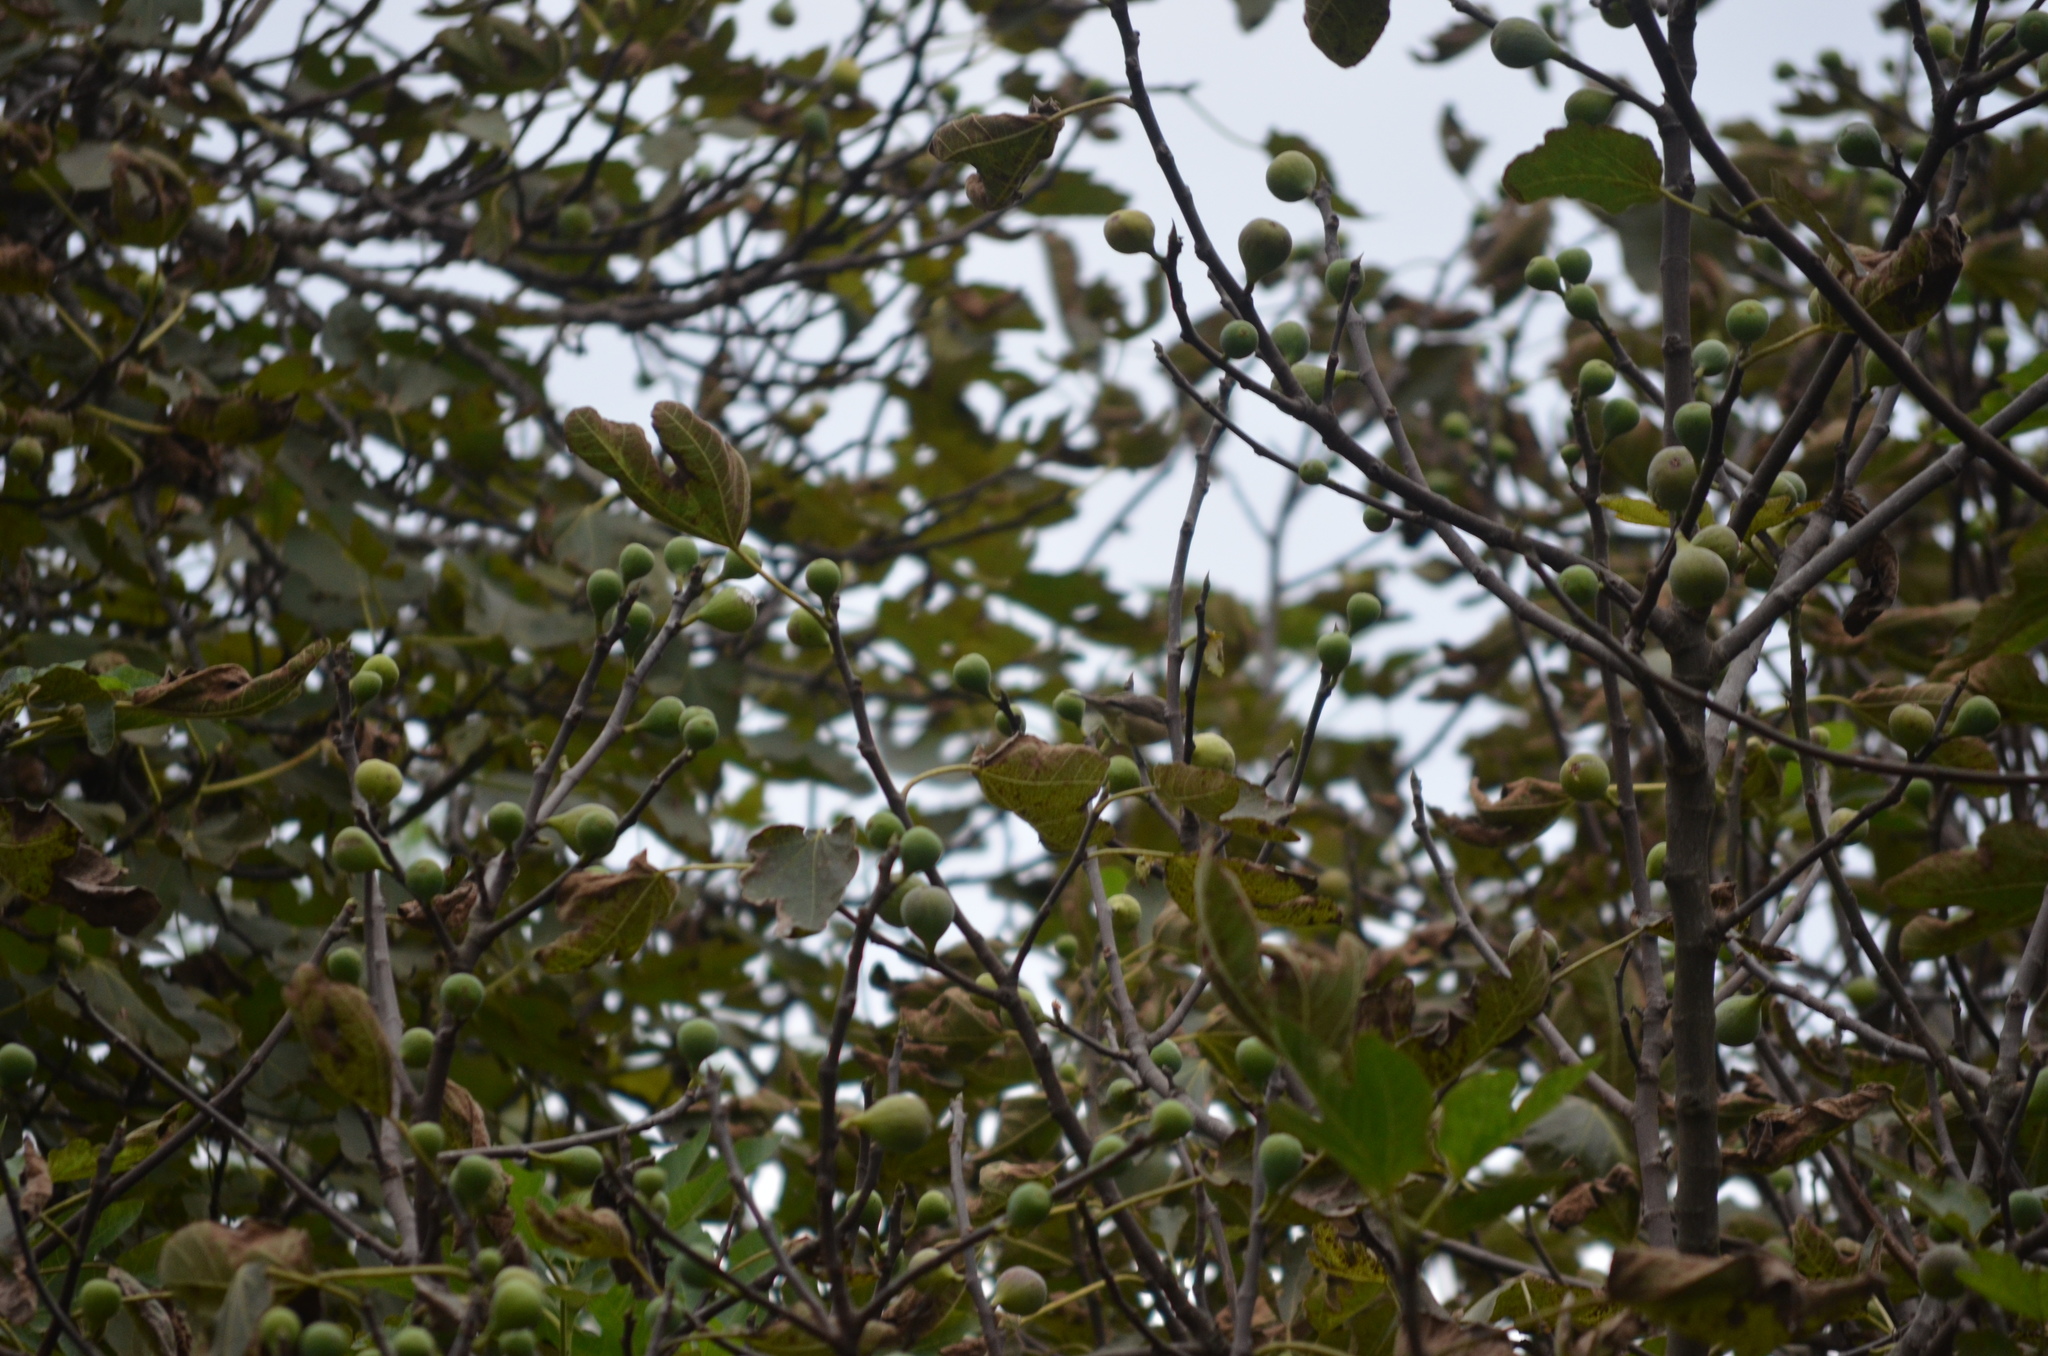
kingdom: Animalia
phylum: Chordata
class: Aves
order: Passeriformes
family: Sylviidae
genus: Sylvia
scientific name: Sylvia atricapilla
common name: Eurasian blackcap
